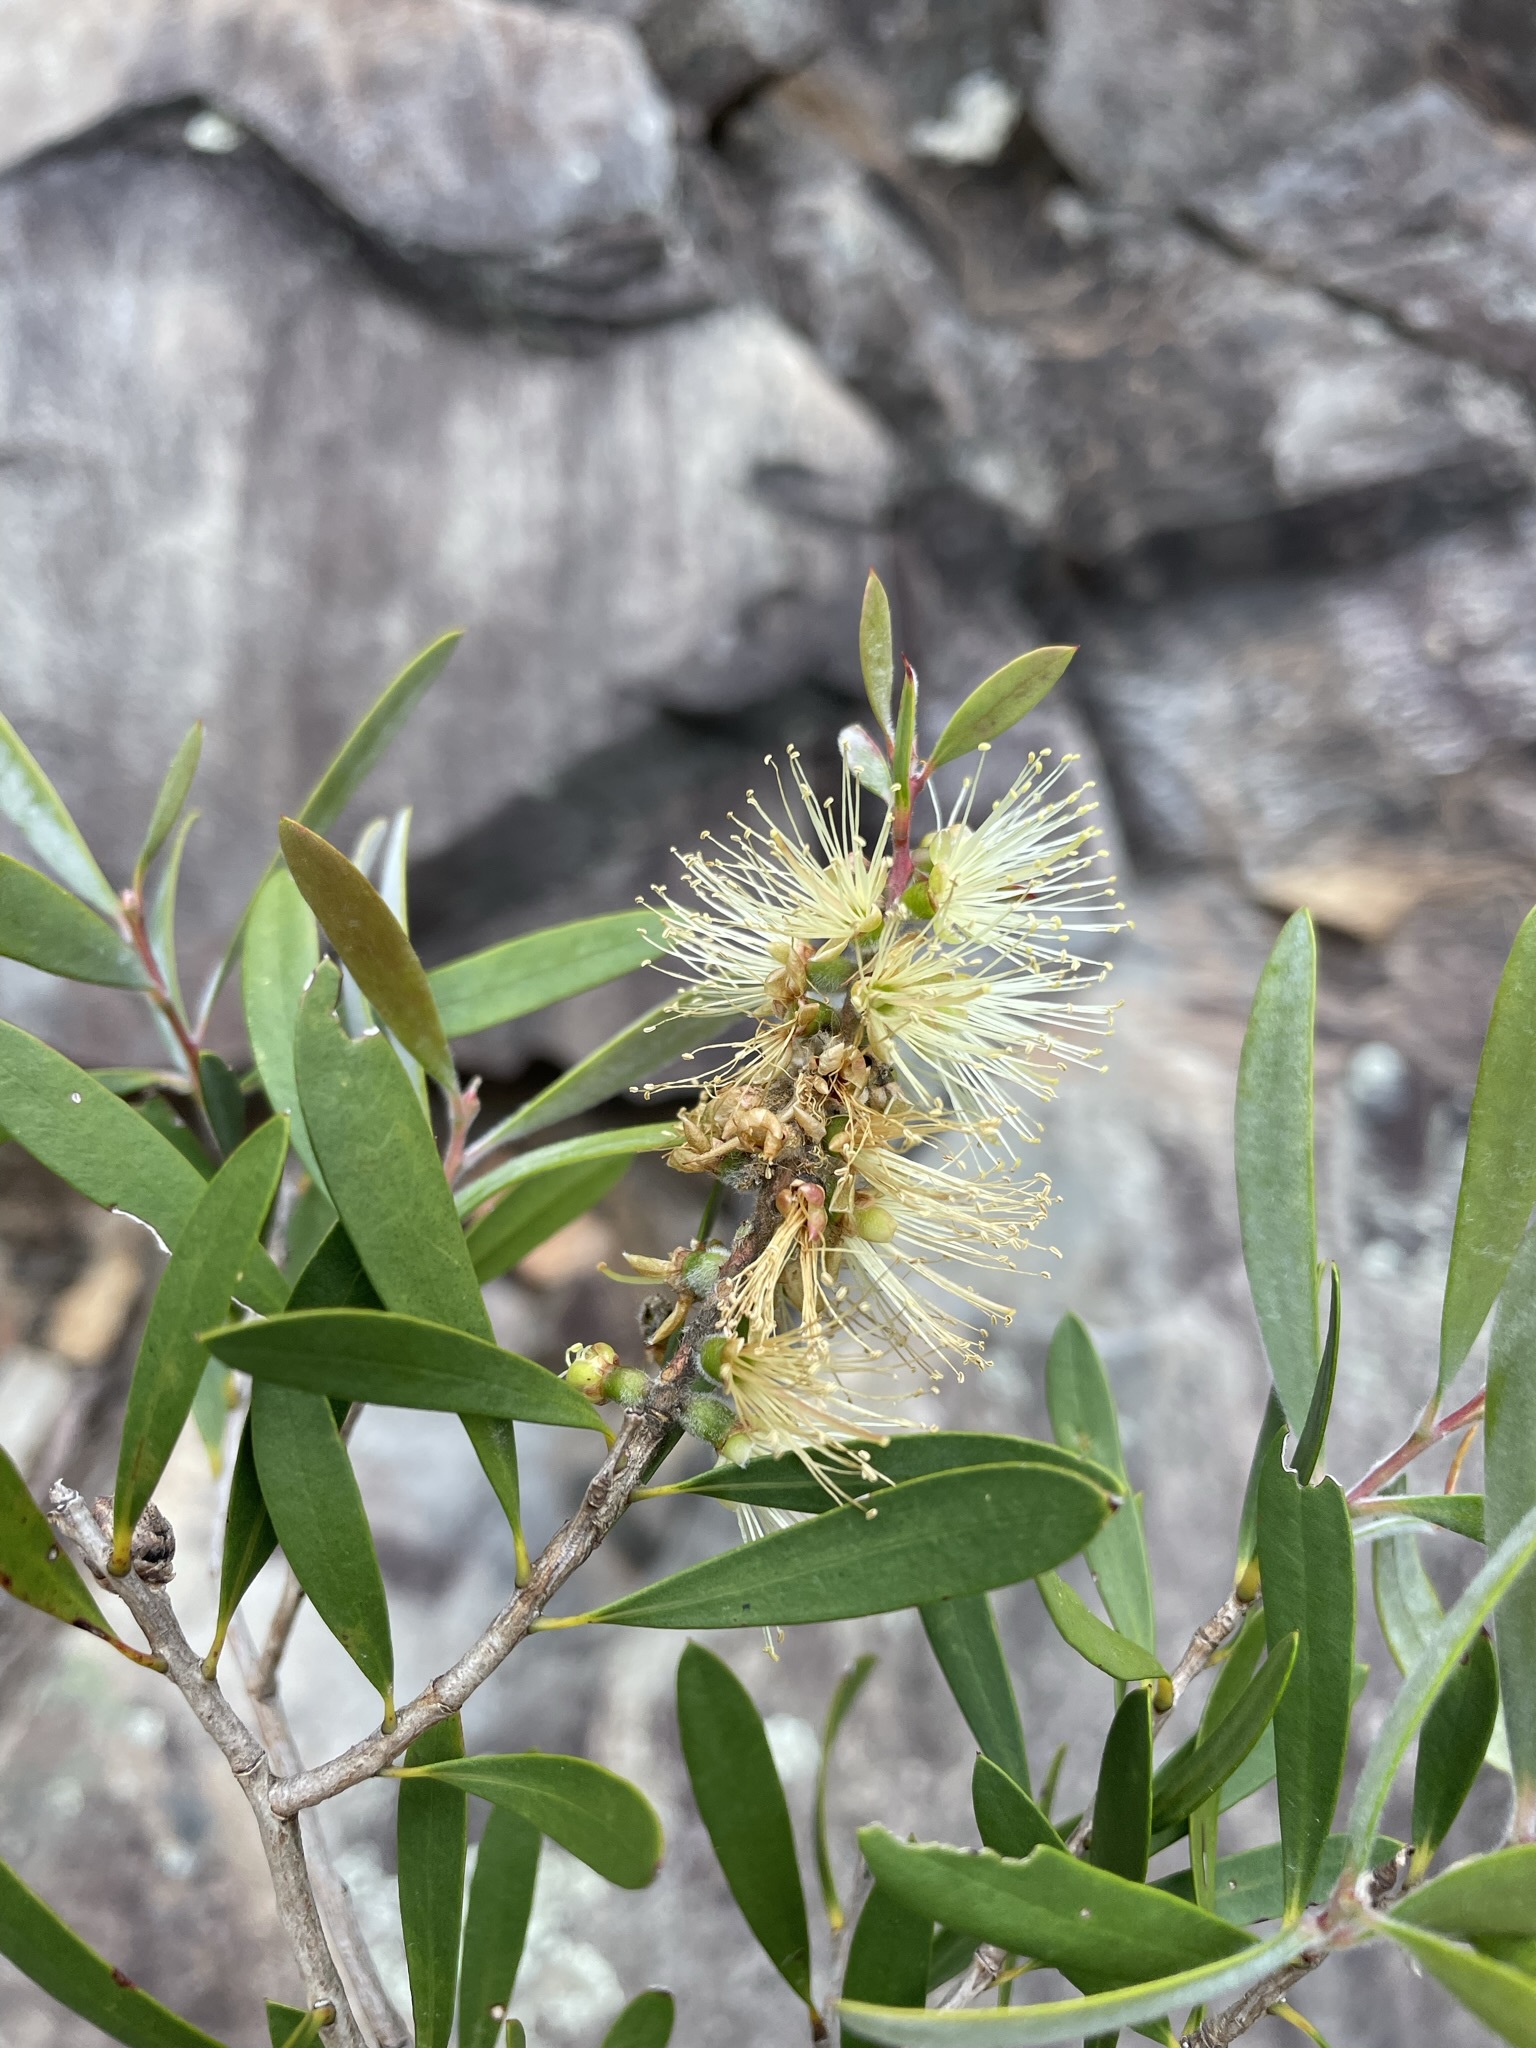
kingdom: Plantae
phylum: Tracheophyta
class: Magnoliopsida
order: Myrtales
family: Myrtaceae
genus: Melaleuca
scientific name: Melaleuca pallida
